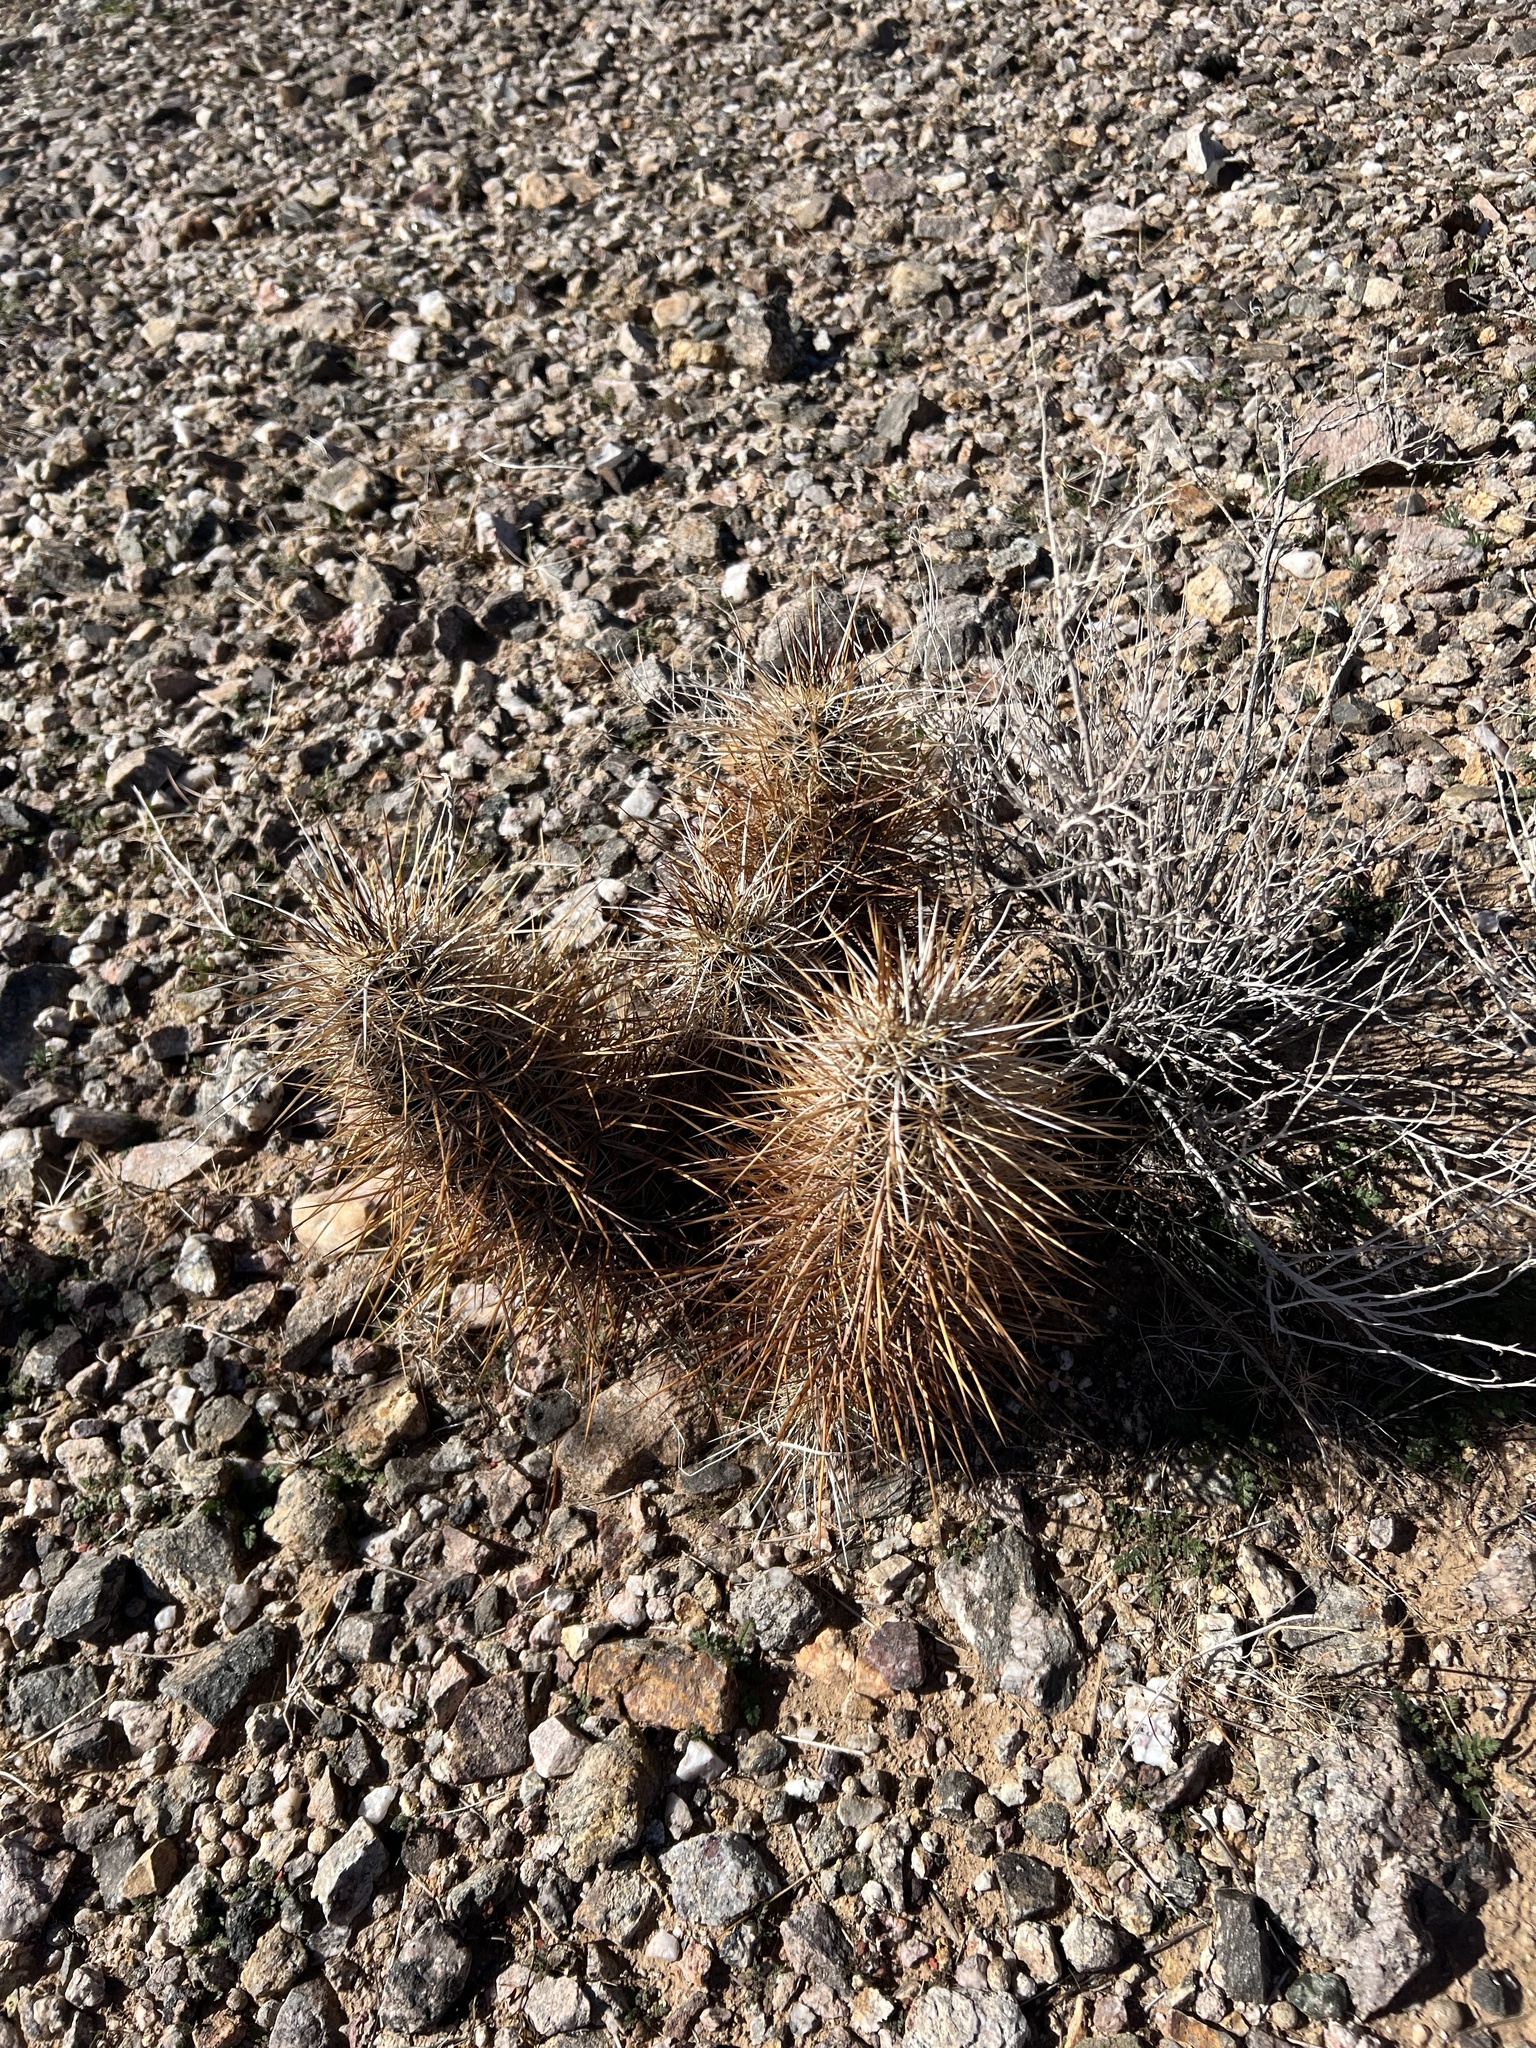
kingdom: Plantae
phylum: Tracheophyta
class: Magnoliopsida
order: Caryophyllales
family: Cactaceae
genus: Echinocereus
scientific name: Echinocereus engelmannii
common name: Engelmann's hedgehog cactus
